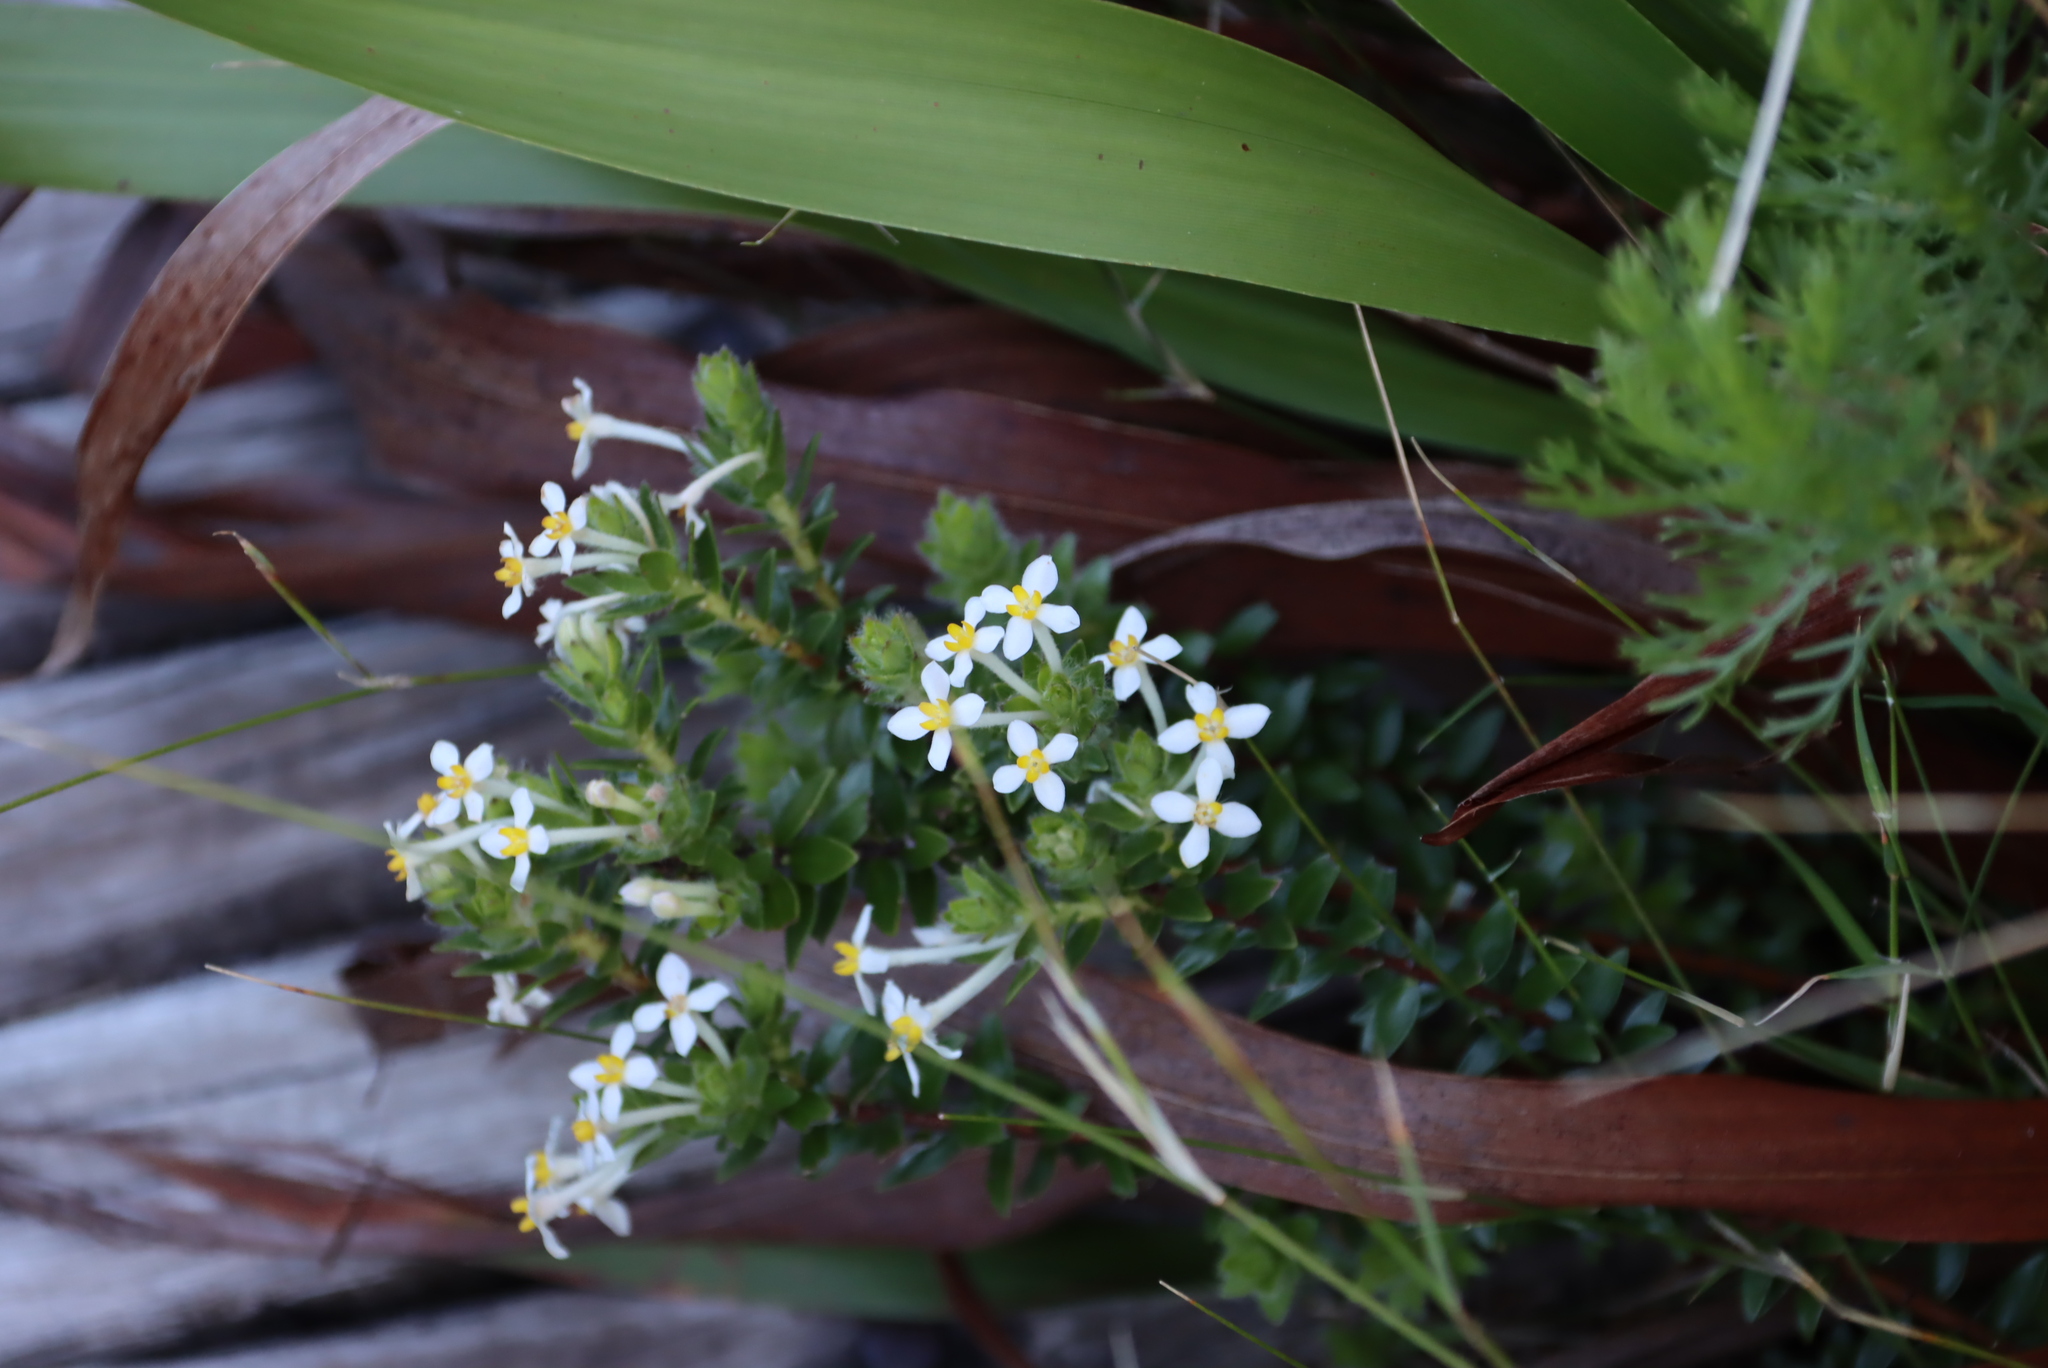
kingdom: Plantae
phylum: Tracheophyta
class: Magnoliopsida
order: Malvales
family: Thymelaeaceae
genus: Gnidia
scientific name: Gnidia tomentosa
